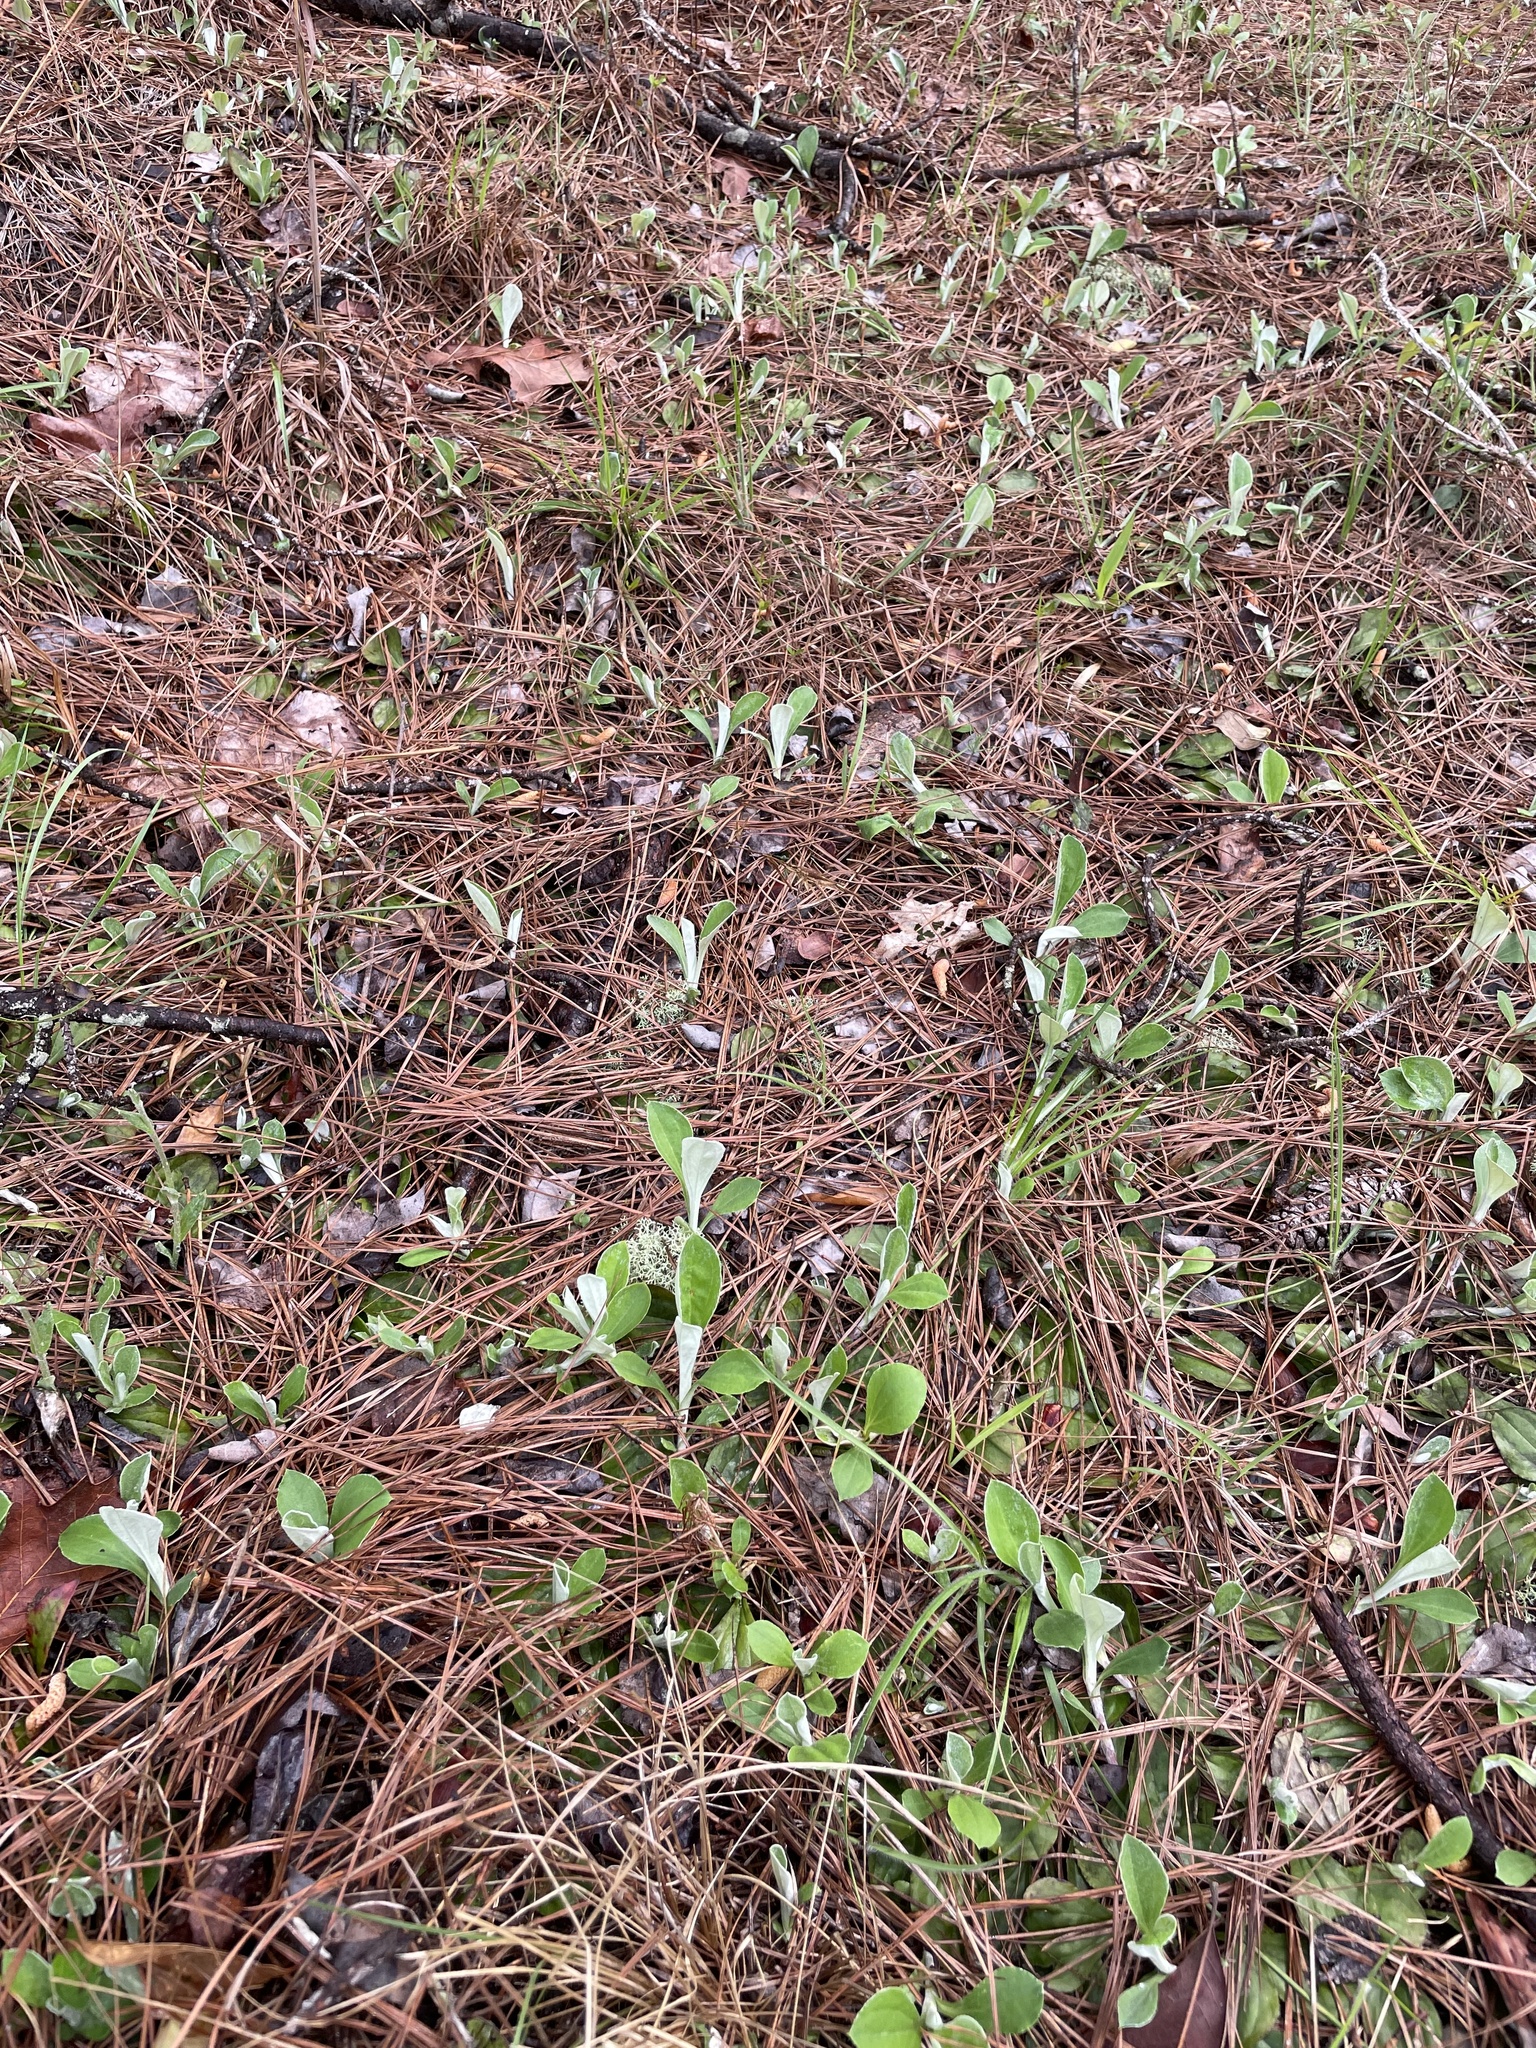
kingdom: Plantae
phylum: Tracheophyta
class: Magnoliopsida
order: Asterales
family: Asteraceae
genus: Antennaria
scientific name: Antennaria parlinii
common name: Parlin's pussytoes
